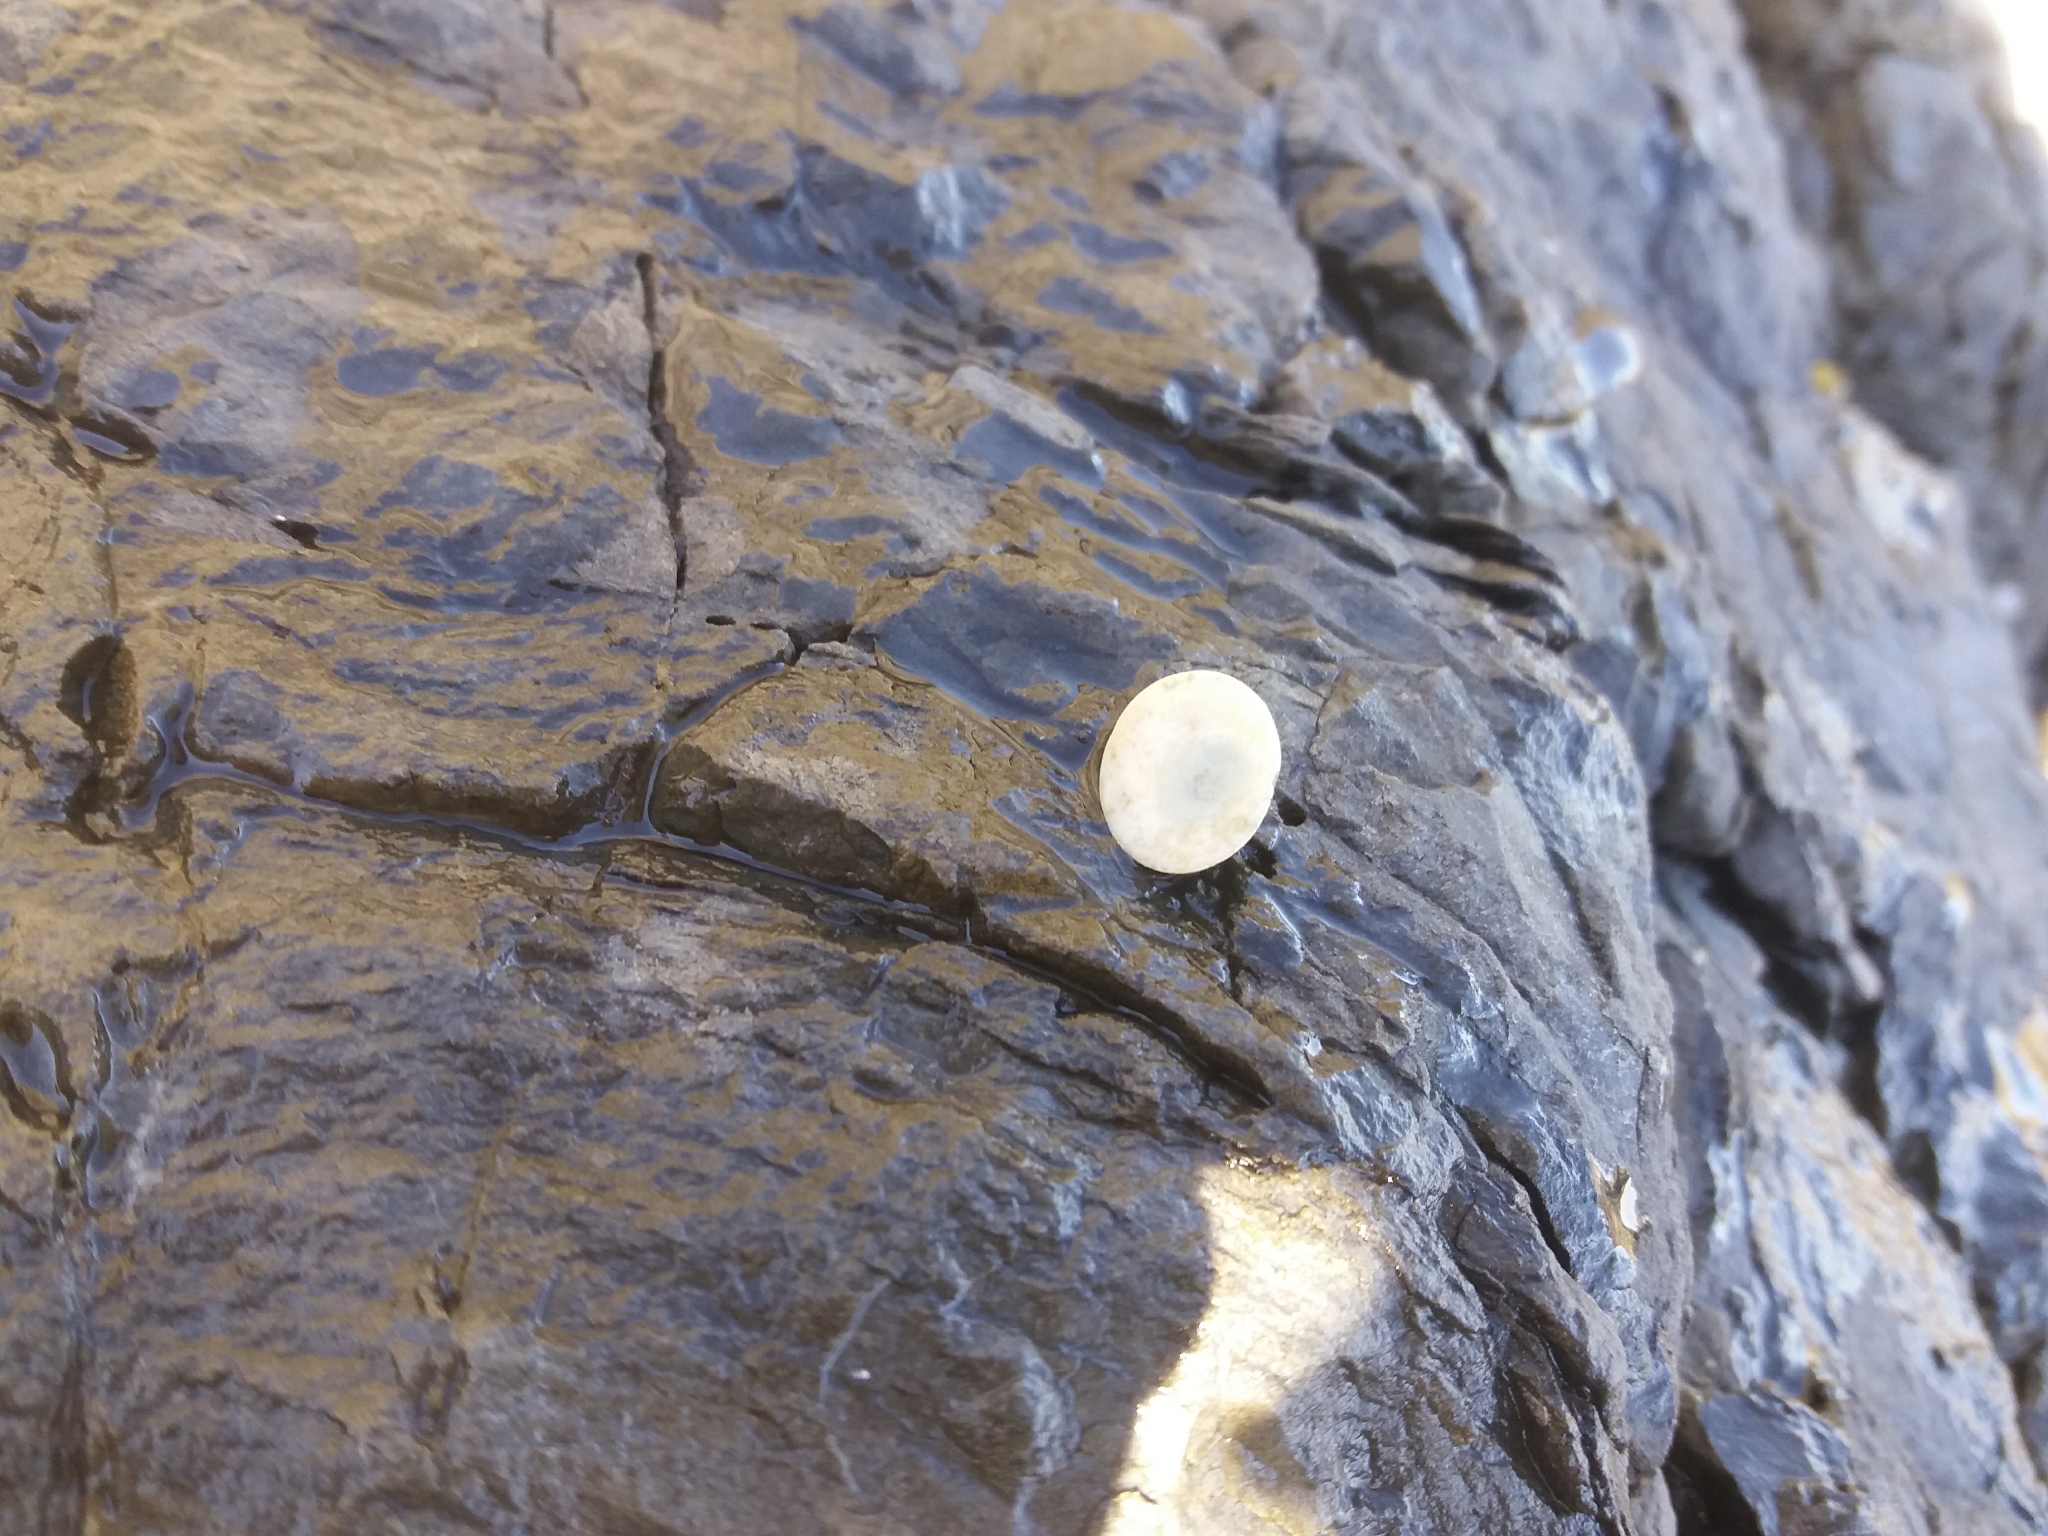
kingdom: Animalia
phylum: Mollusca
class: Gastropoda
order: Trochida
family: Turbinidae
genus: Lunella
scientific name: Lunella smaragda
